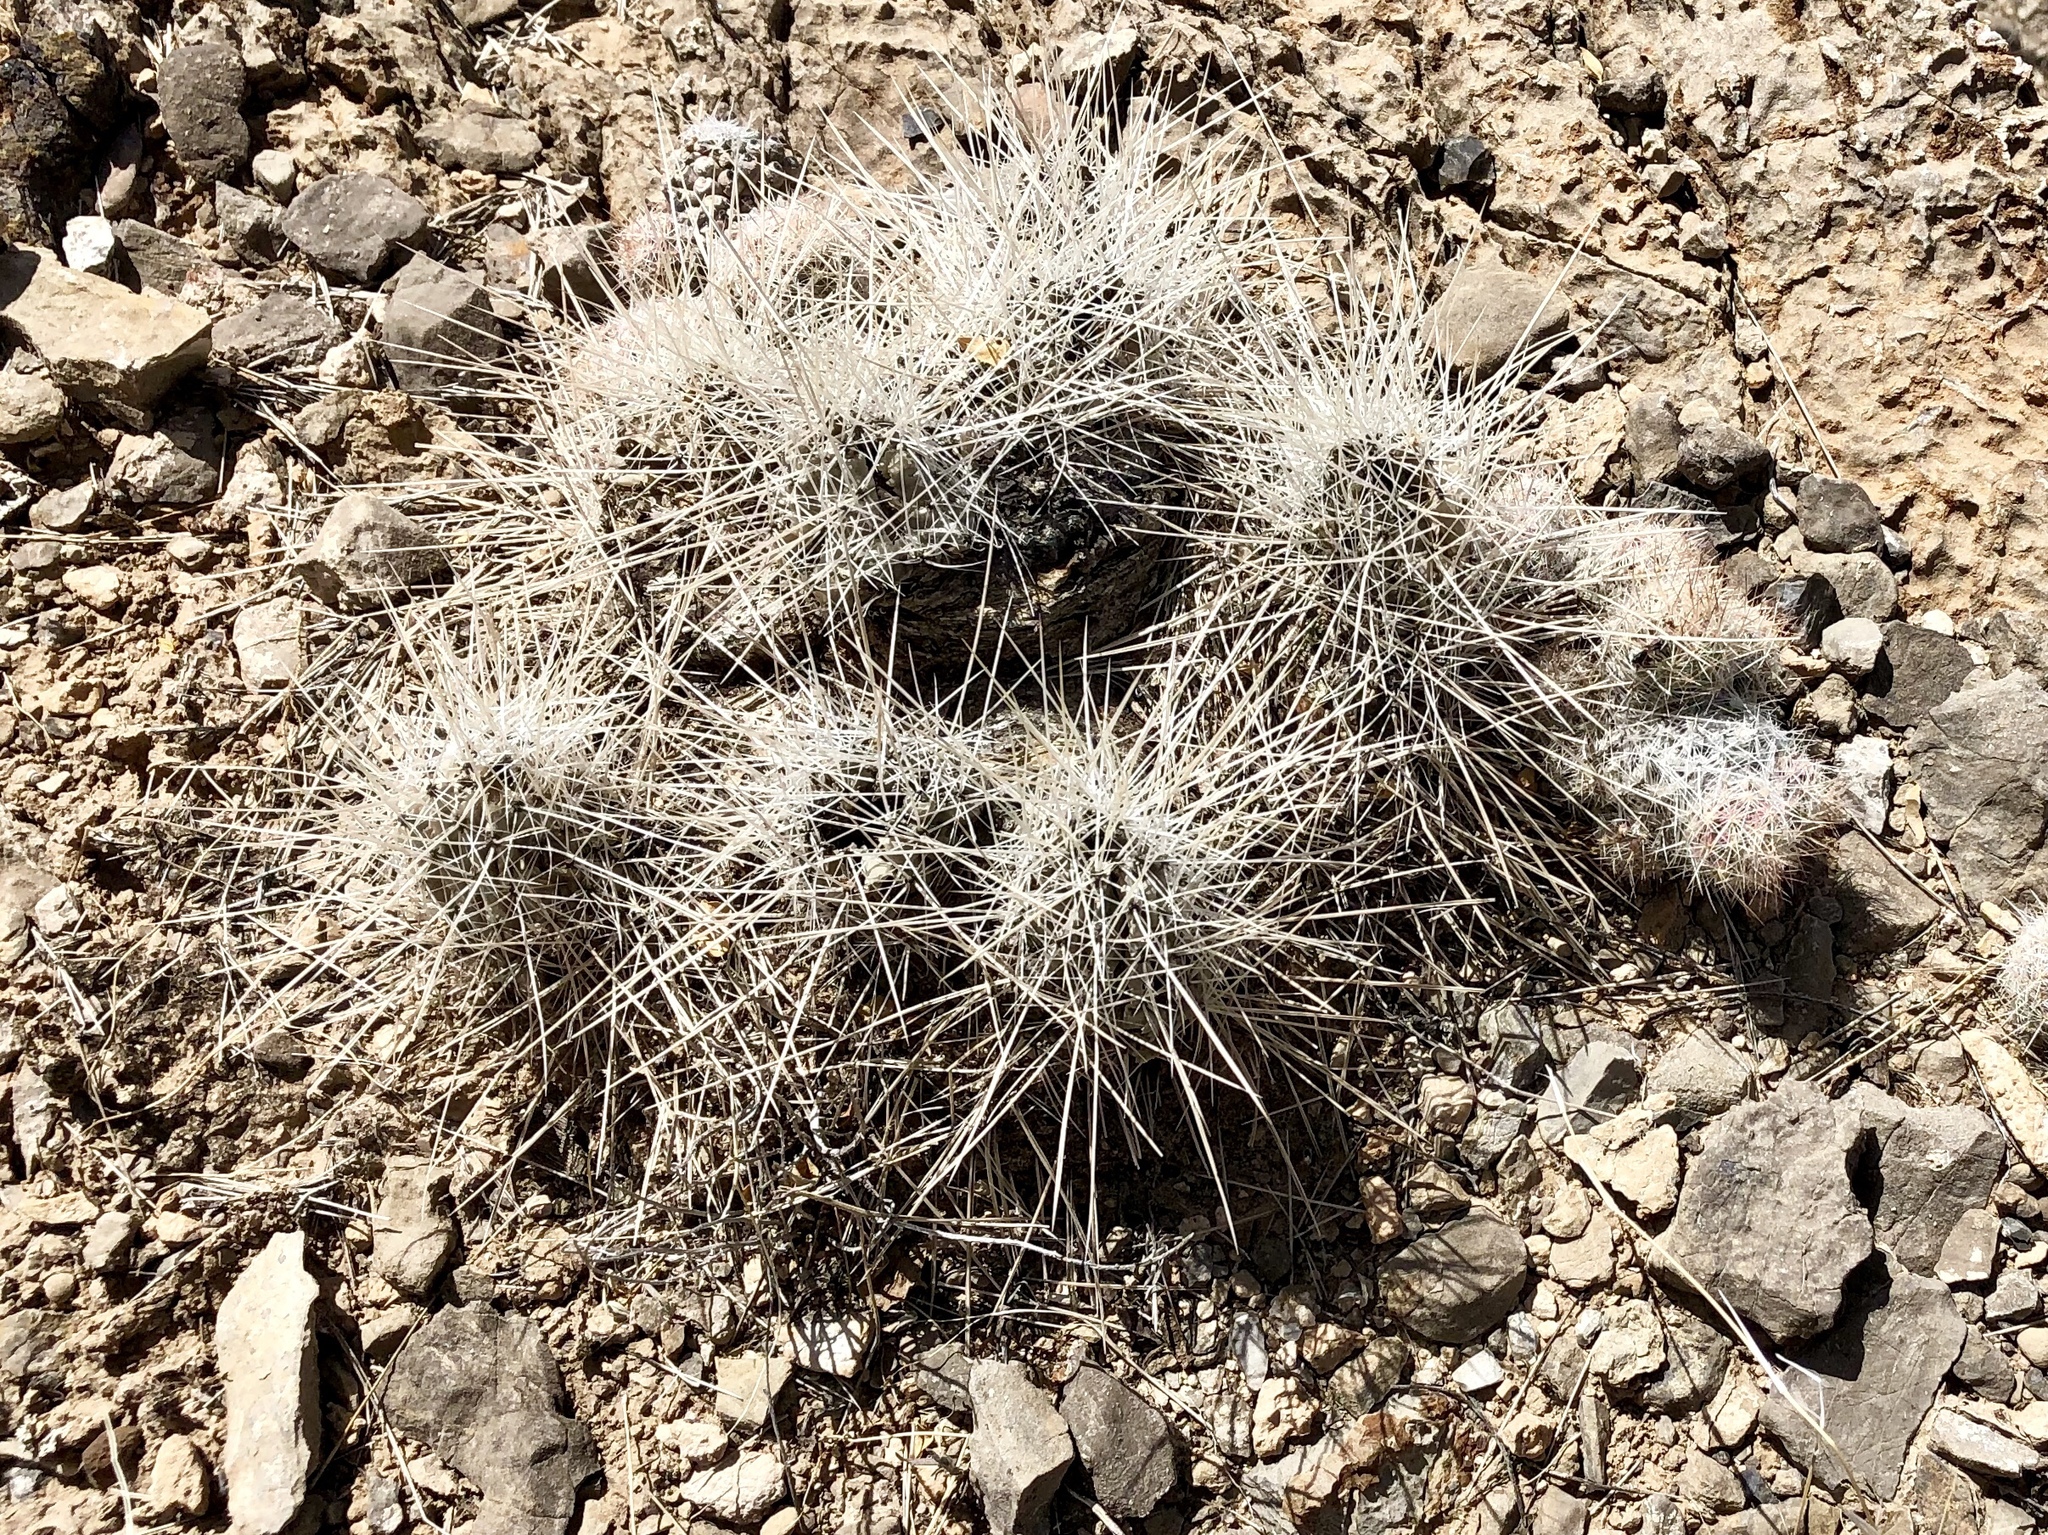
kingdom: Plantae
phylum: Tracheophyta
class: Magnoliopsida
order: Caryophyllales
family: Cactaceae
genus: Echinocereus
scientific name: Echinocereus stramineus
